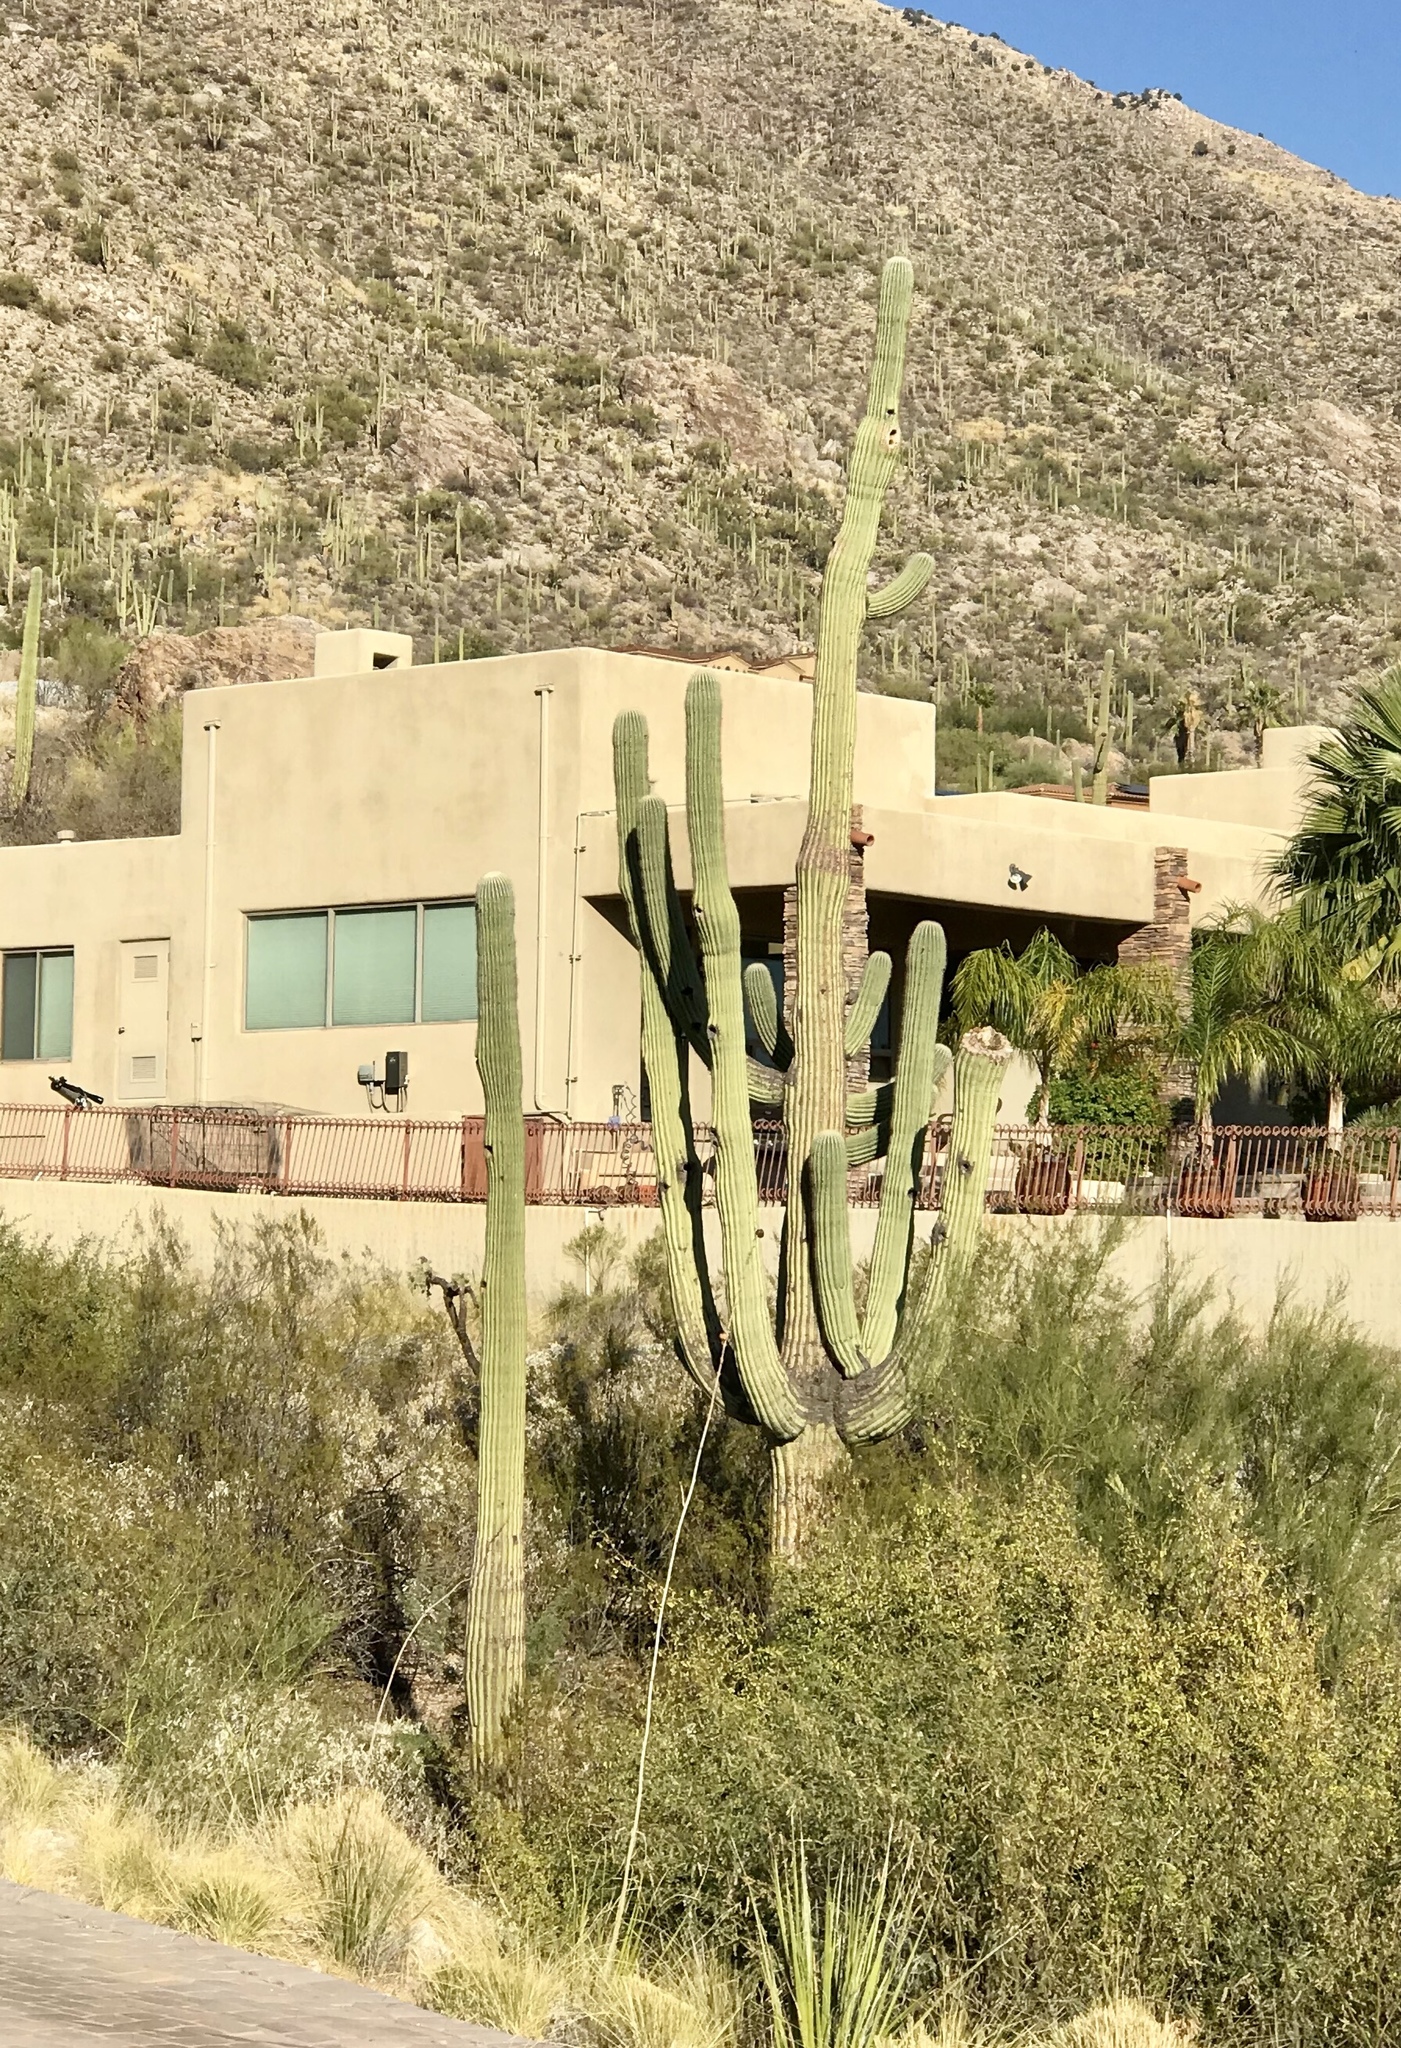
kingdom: Plantae
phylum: Tracheophyta
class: Magnoliopsida
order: Caryophyllales
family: Cactaceae
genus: Carnegiea
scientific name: Carnegiea gigantea
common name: Saguaro
